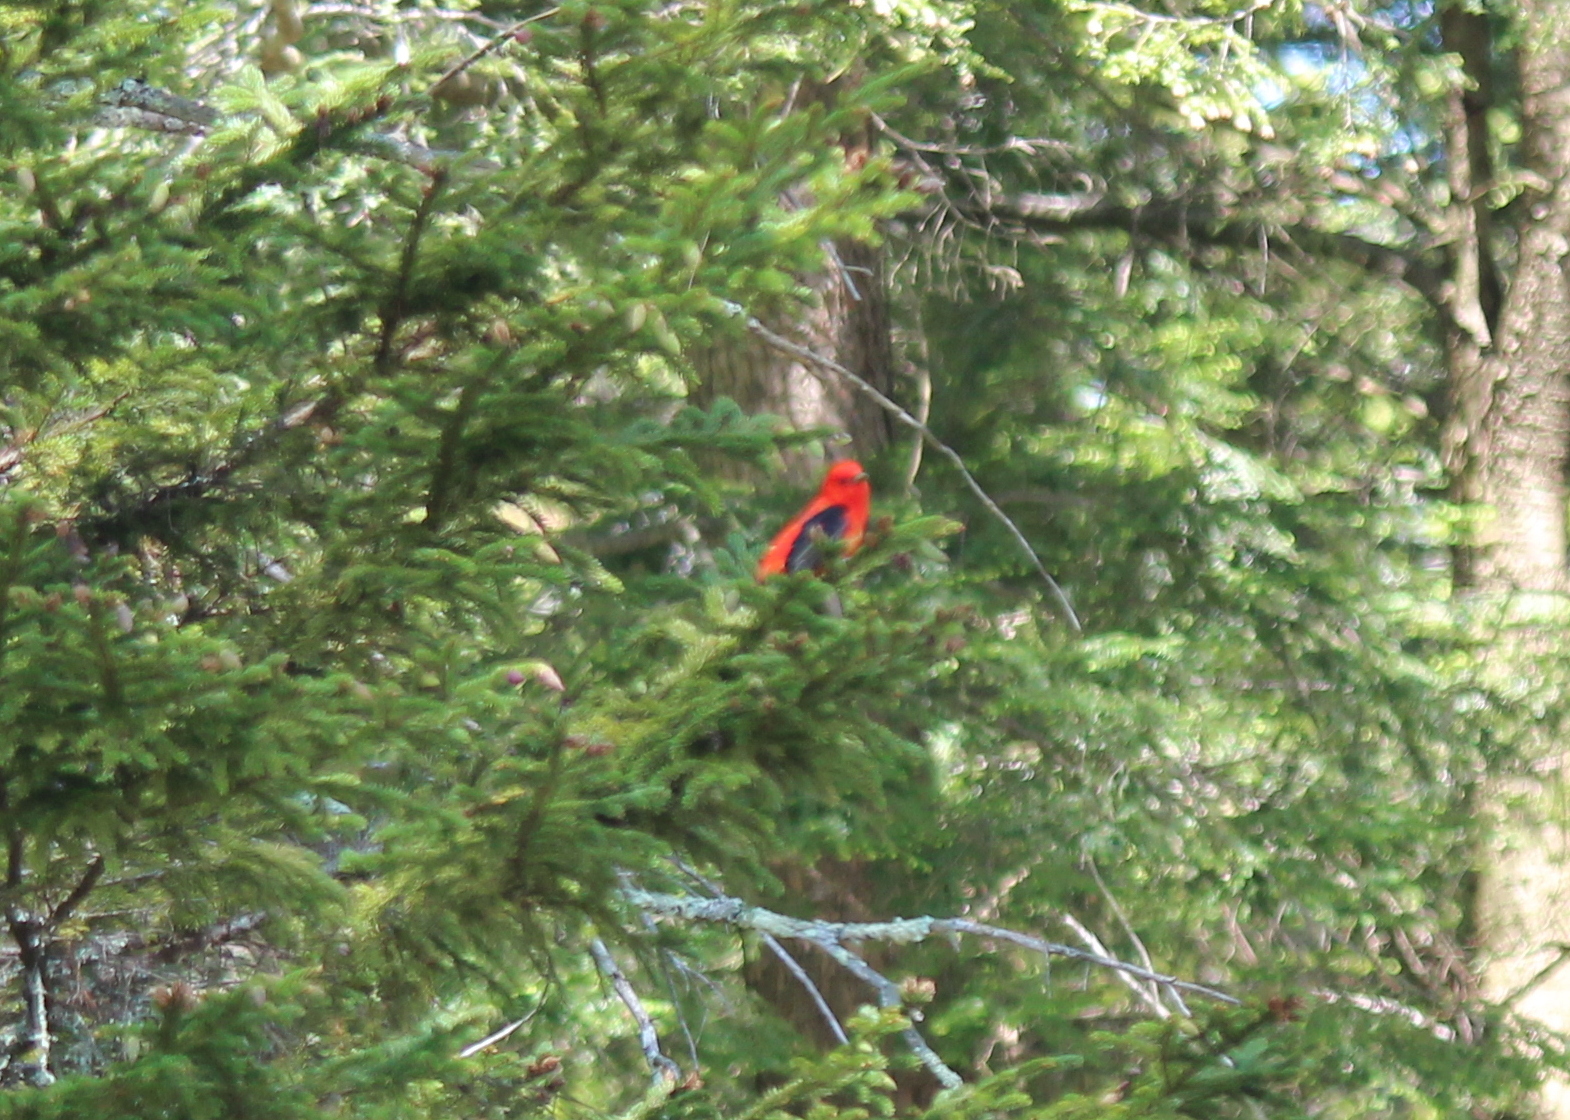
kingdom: Animalia
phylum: Chordata
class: Aves
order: Passeriformes
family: Cardinalidae
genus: Piranga
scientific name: Piranga olivacea
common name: Scarlet tanager
